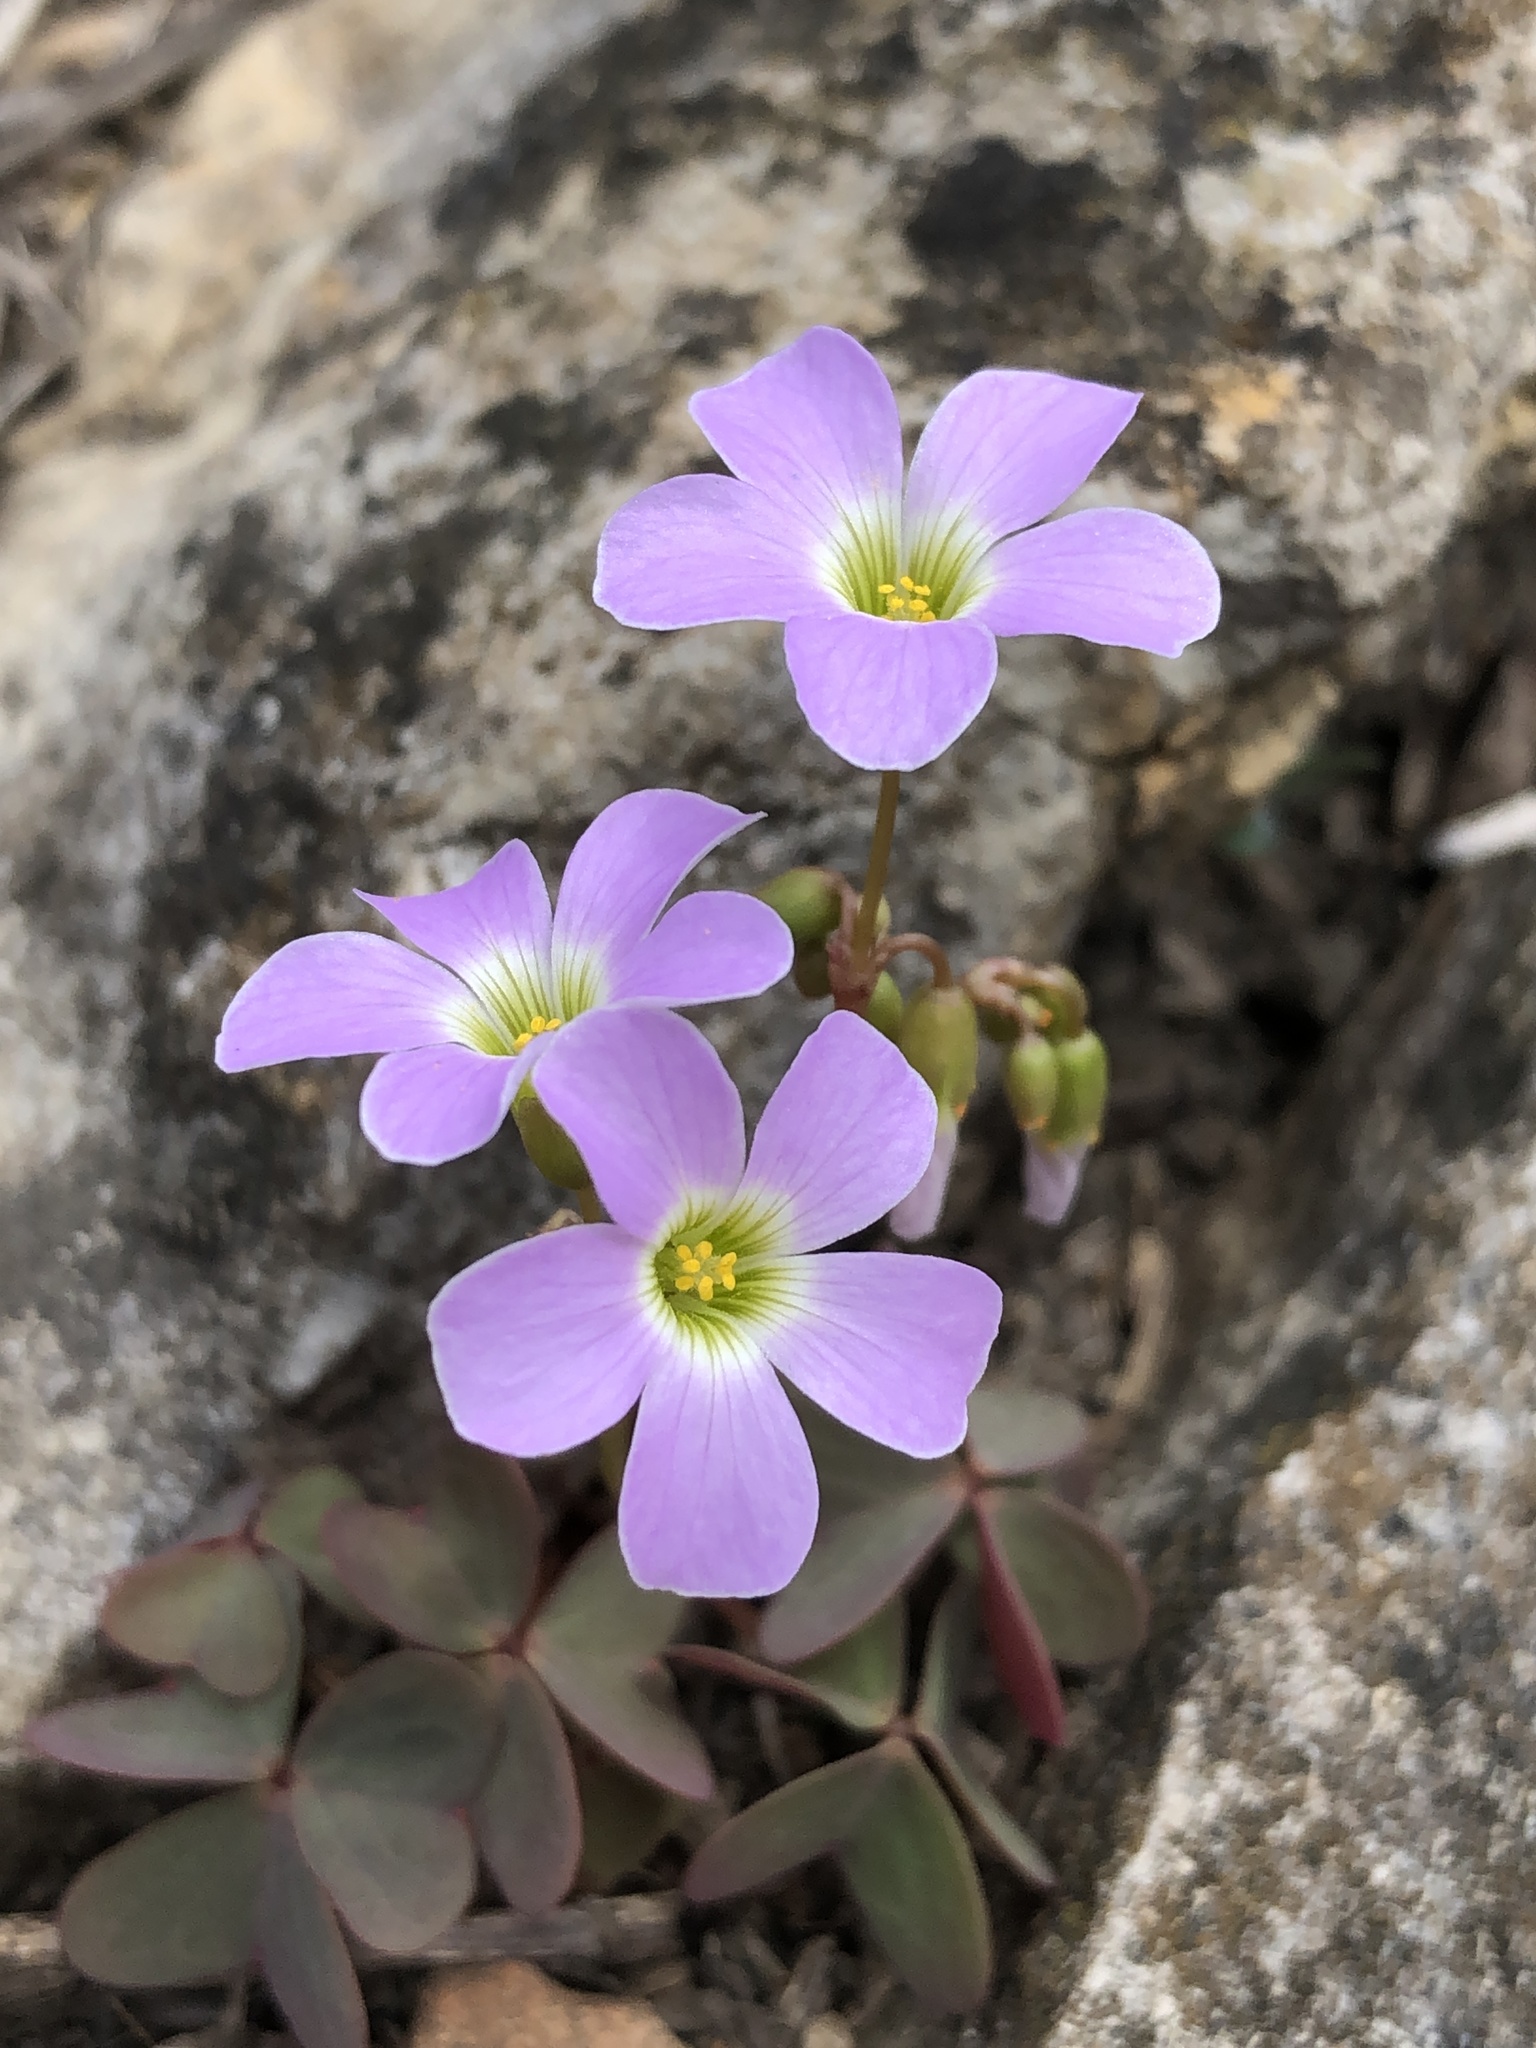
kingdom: Plantae
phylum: Tracheophyta
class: Magnoliopsida
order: Oxalidales
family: Oxalidaceae
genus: Oxalis
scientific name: Oxalis violacea
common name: Violet wood-sorrel
